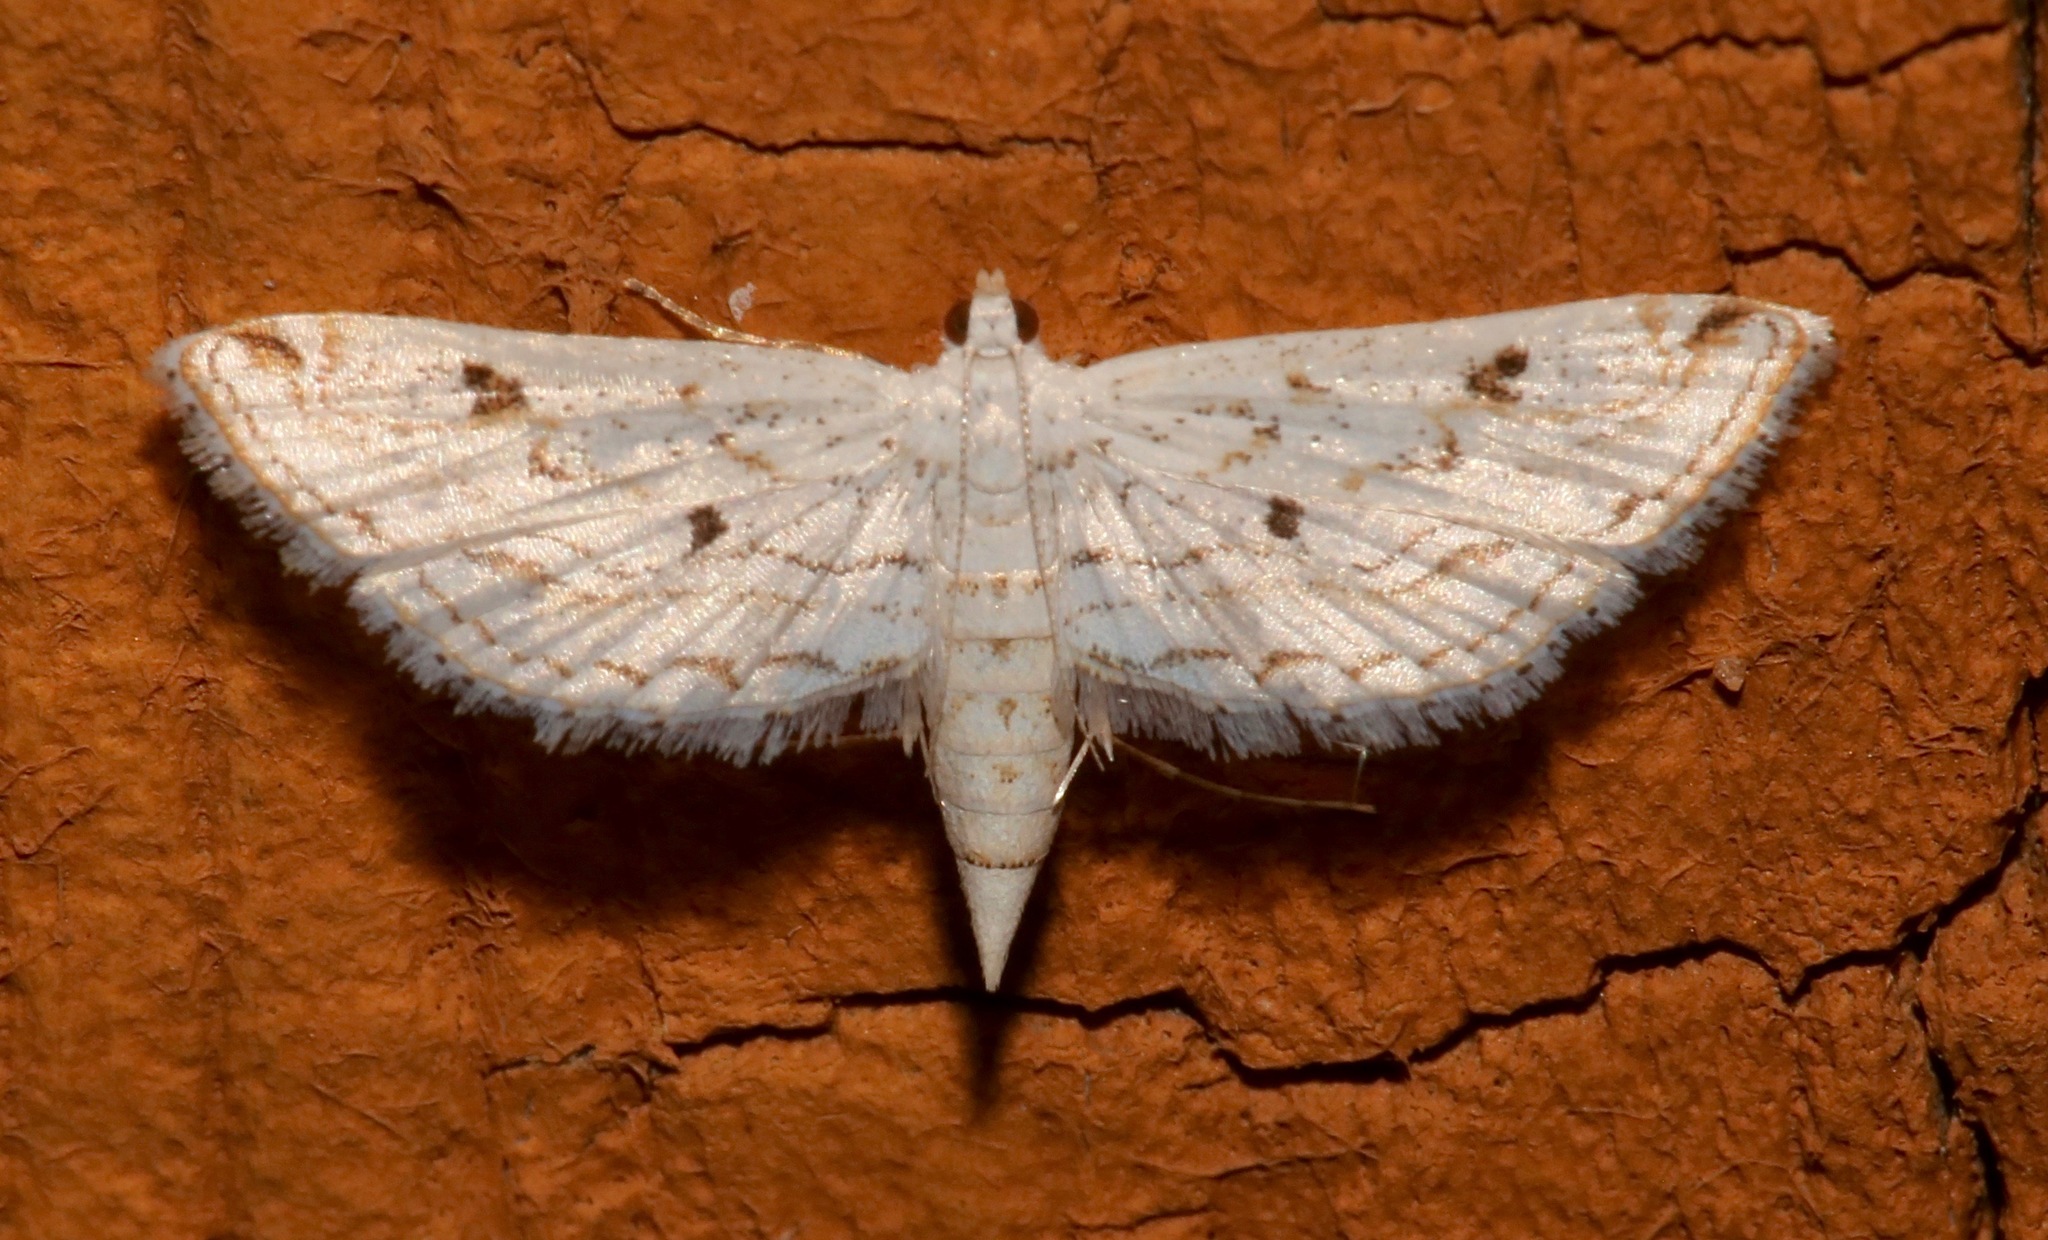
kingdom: Animalia
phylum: Arthropoda
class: Insecta
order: Lepidoptera
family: Crambidae
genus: Parapoynx
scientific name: Parapoynx allionealis
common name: Bladderwort casemaker
